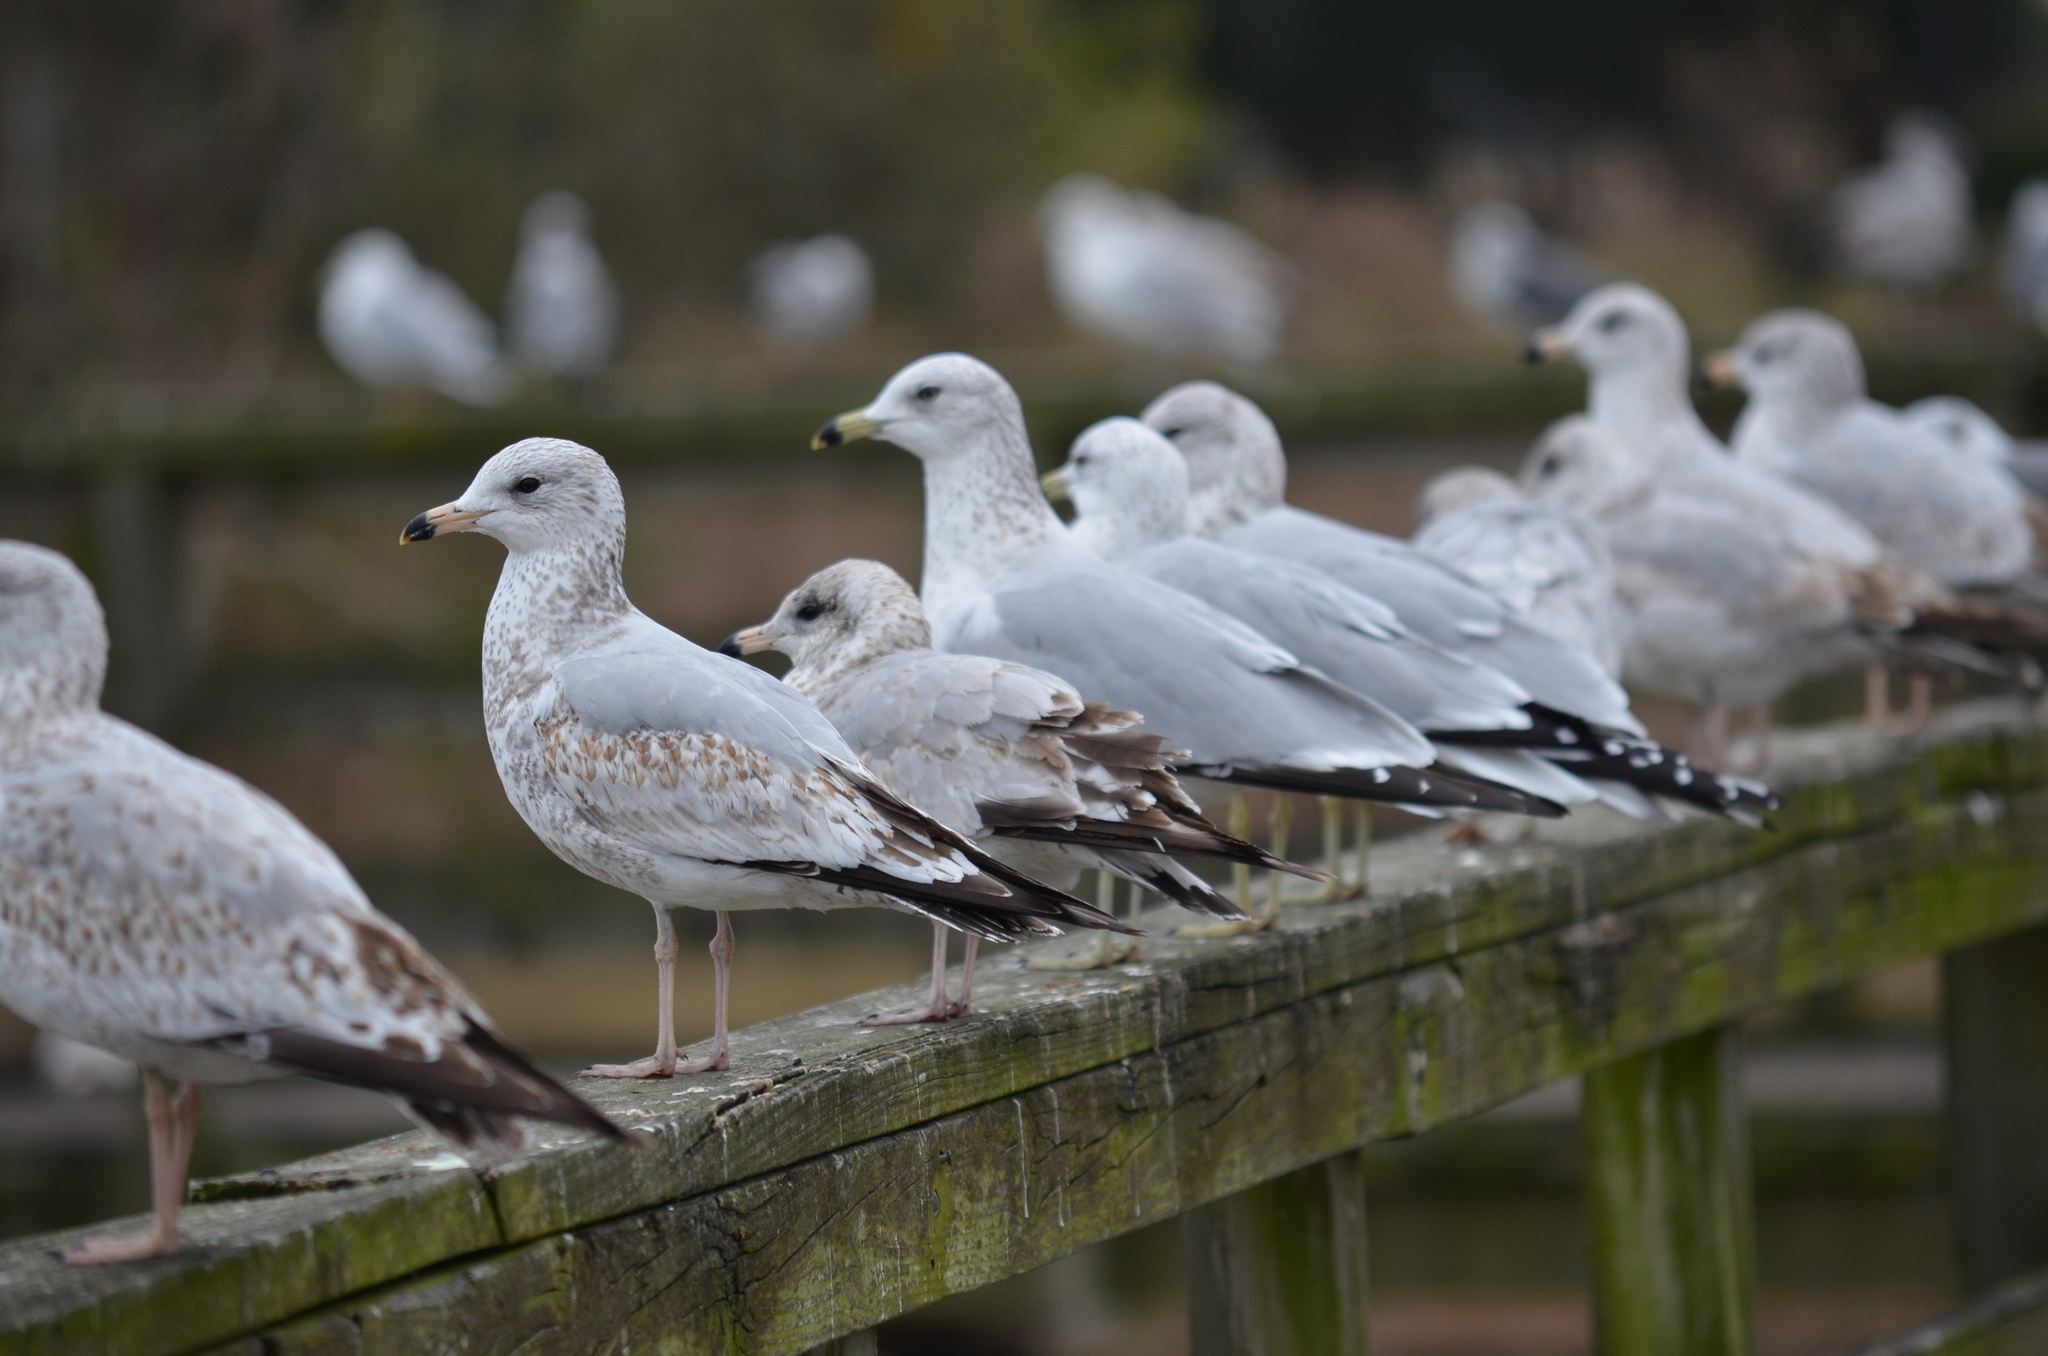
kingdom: Animalia
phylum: Chordata
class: Aves
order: Charadriiformes
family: Laridae
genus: Larus
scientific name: Larus delawarensis
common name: Ring-billed gull
